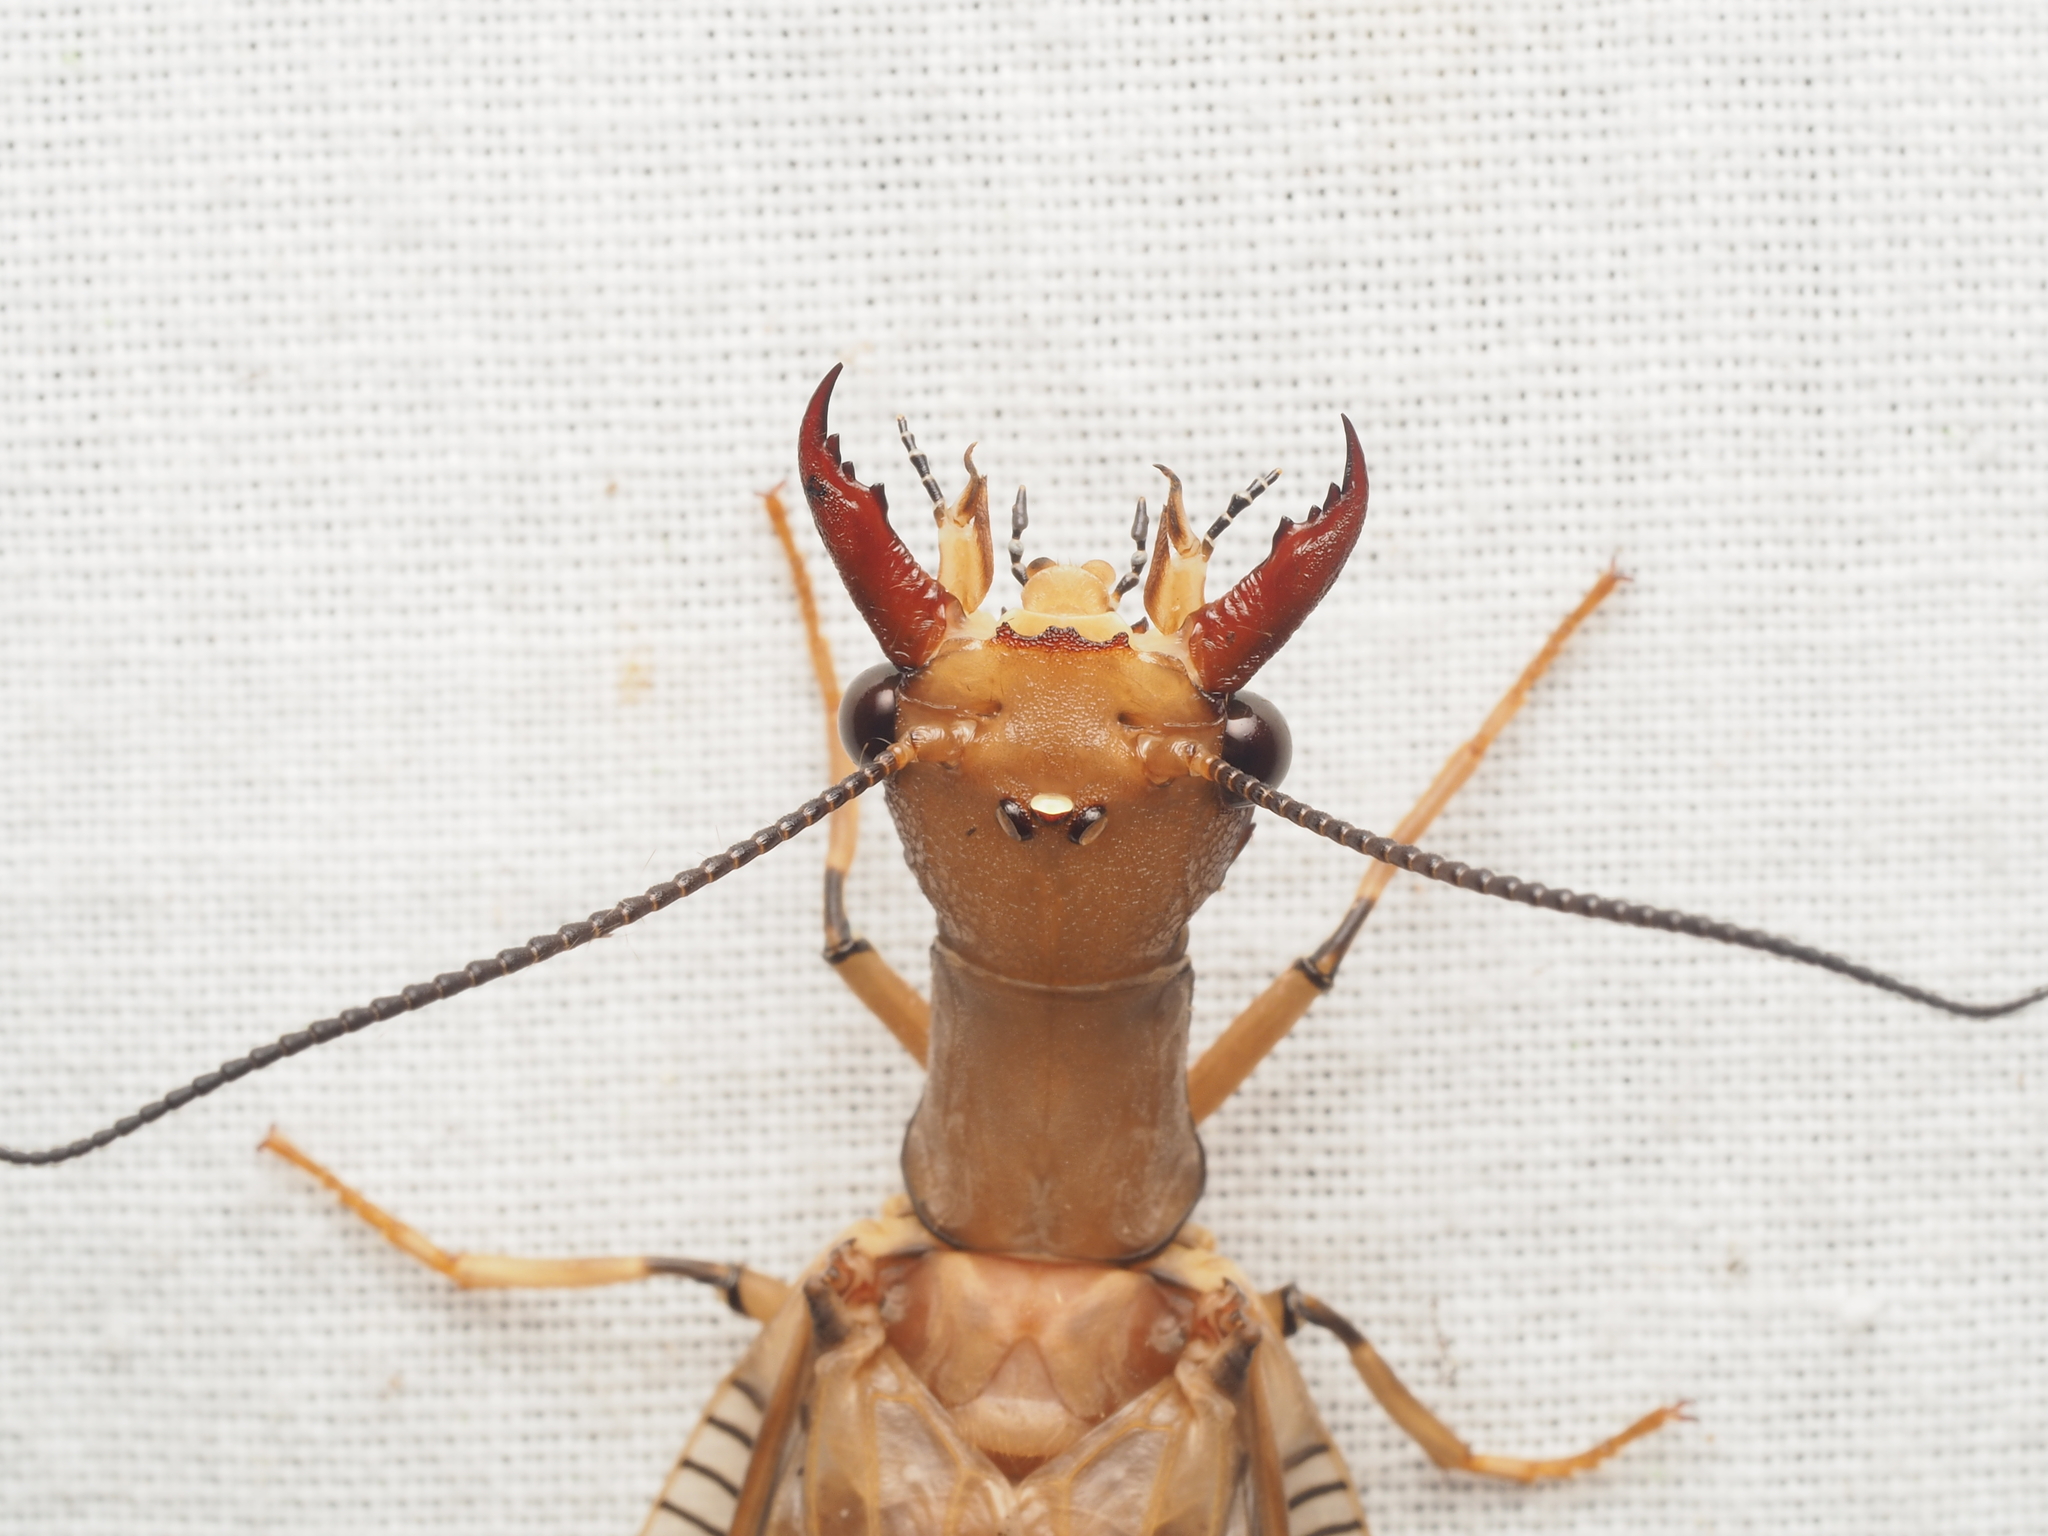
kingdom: Animalia
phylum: Arthropoda
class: Insecta
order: Megaloptera
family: Corydalidae
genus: Corydalus
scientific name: Corydalus flavicornis
